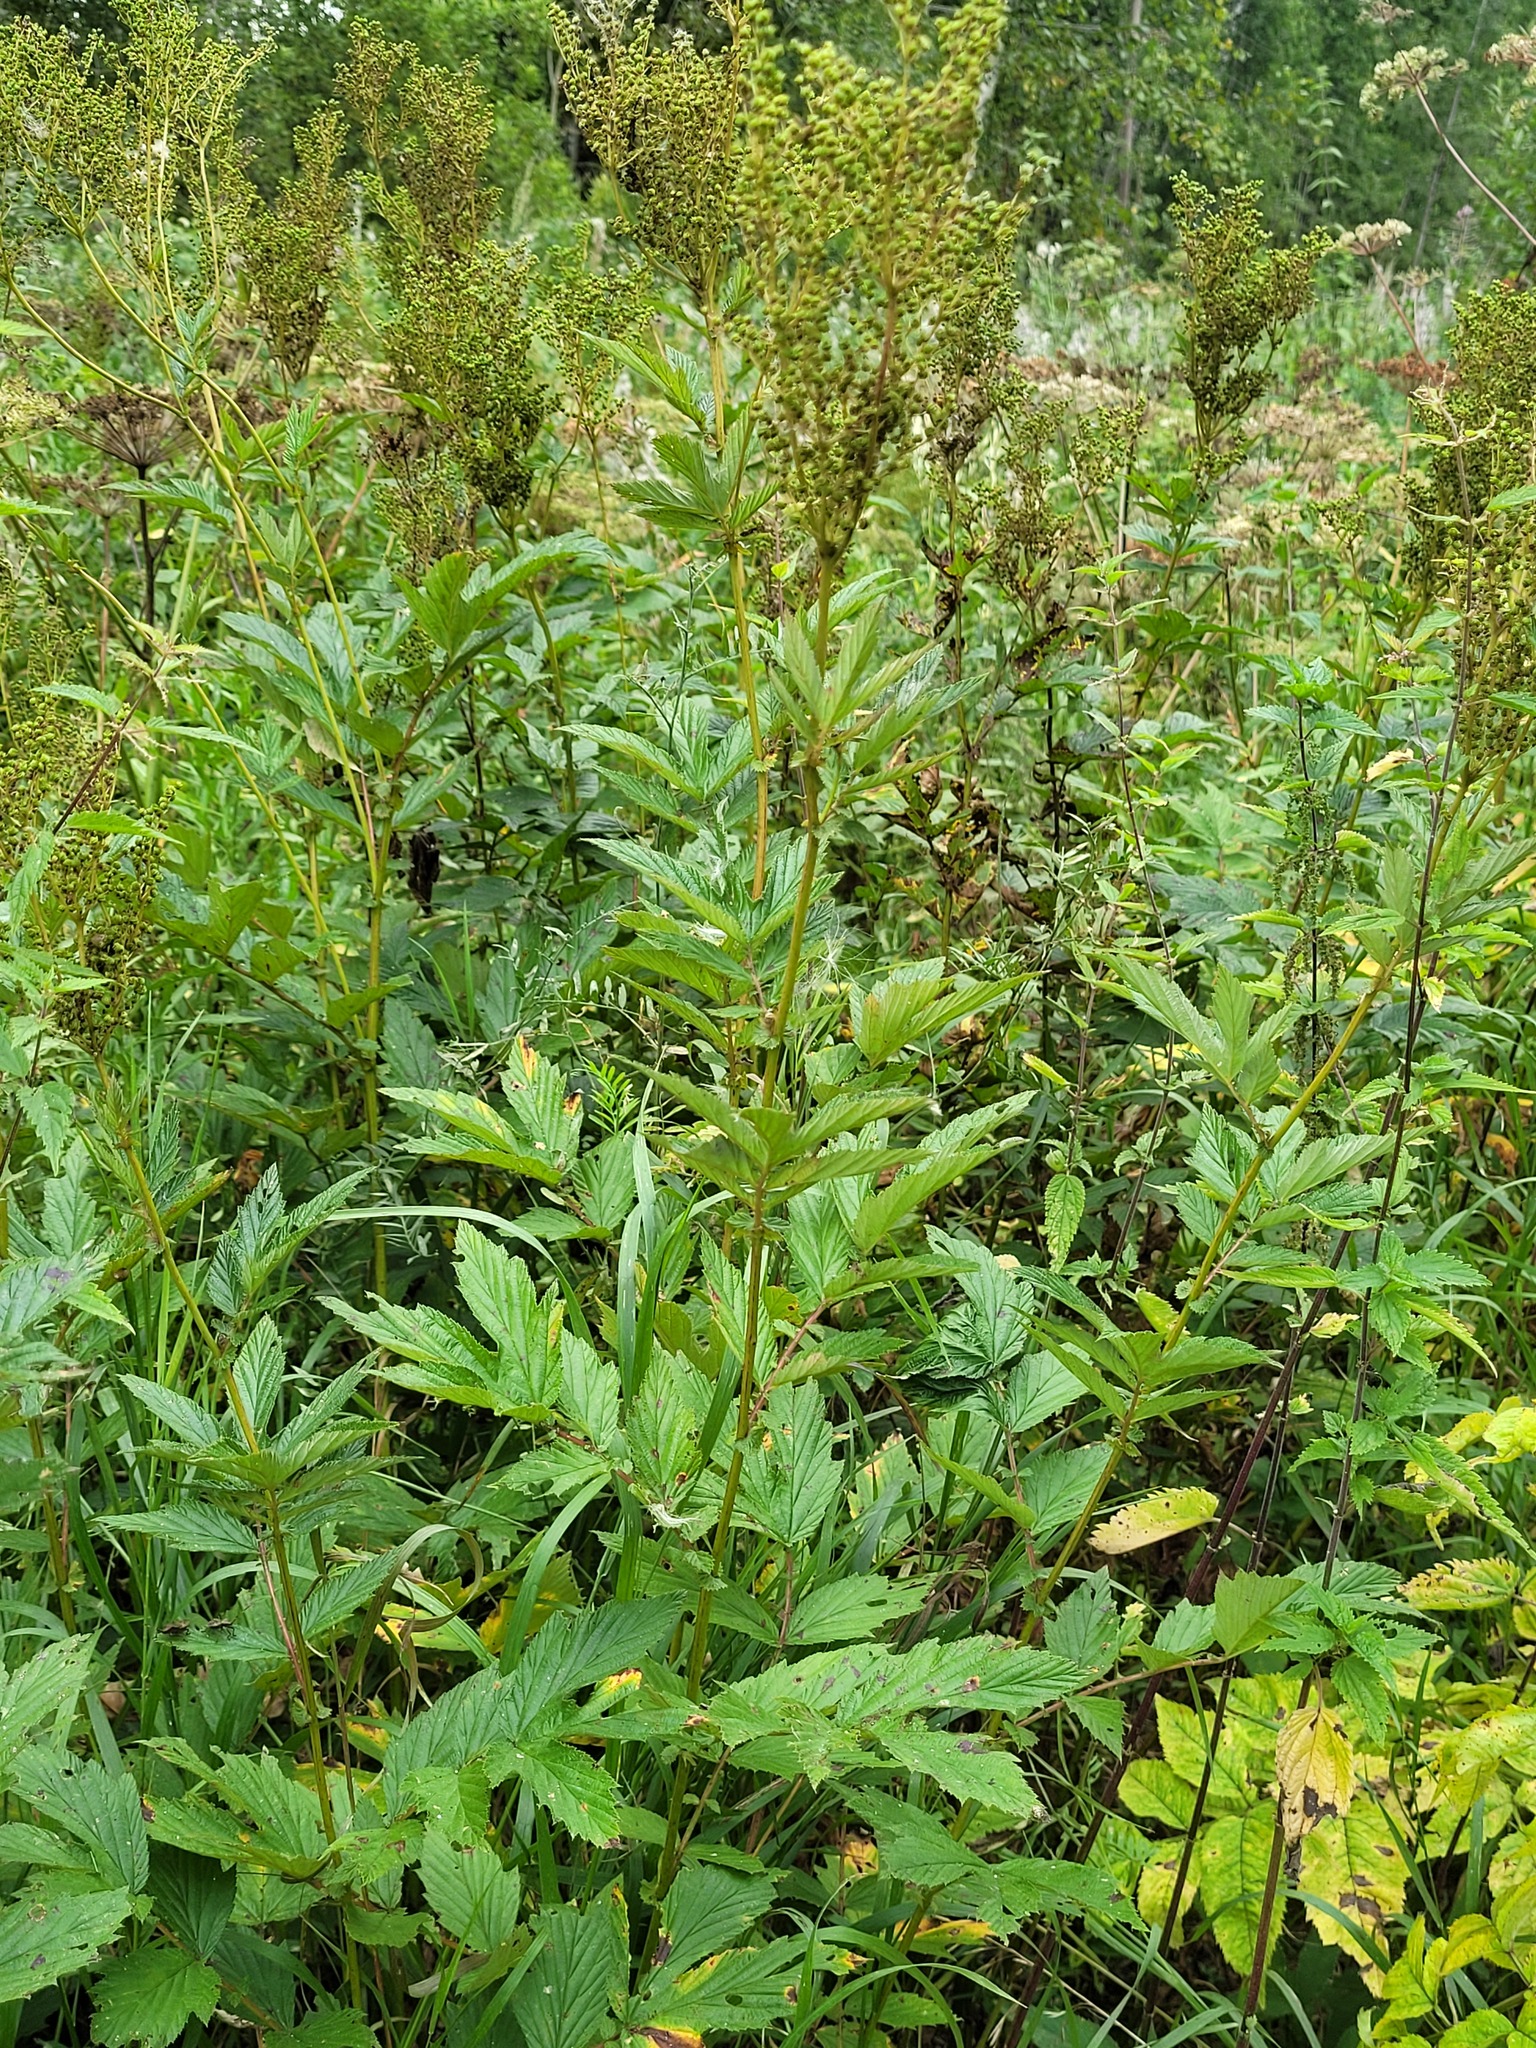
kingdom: Plantae
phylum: Tracheophyta
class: Magnoliopsida
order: Rosales
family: Rosaceae
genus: Filipendula
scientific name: Filipendula ulmaria
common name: Meadowsweet
